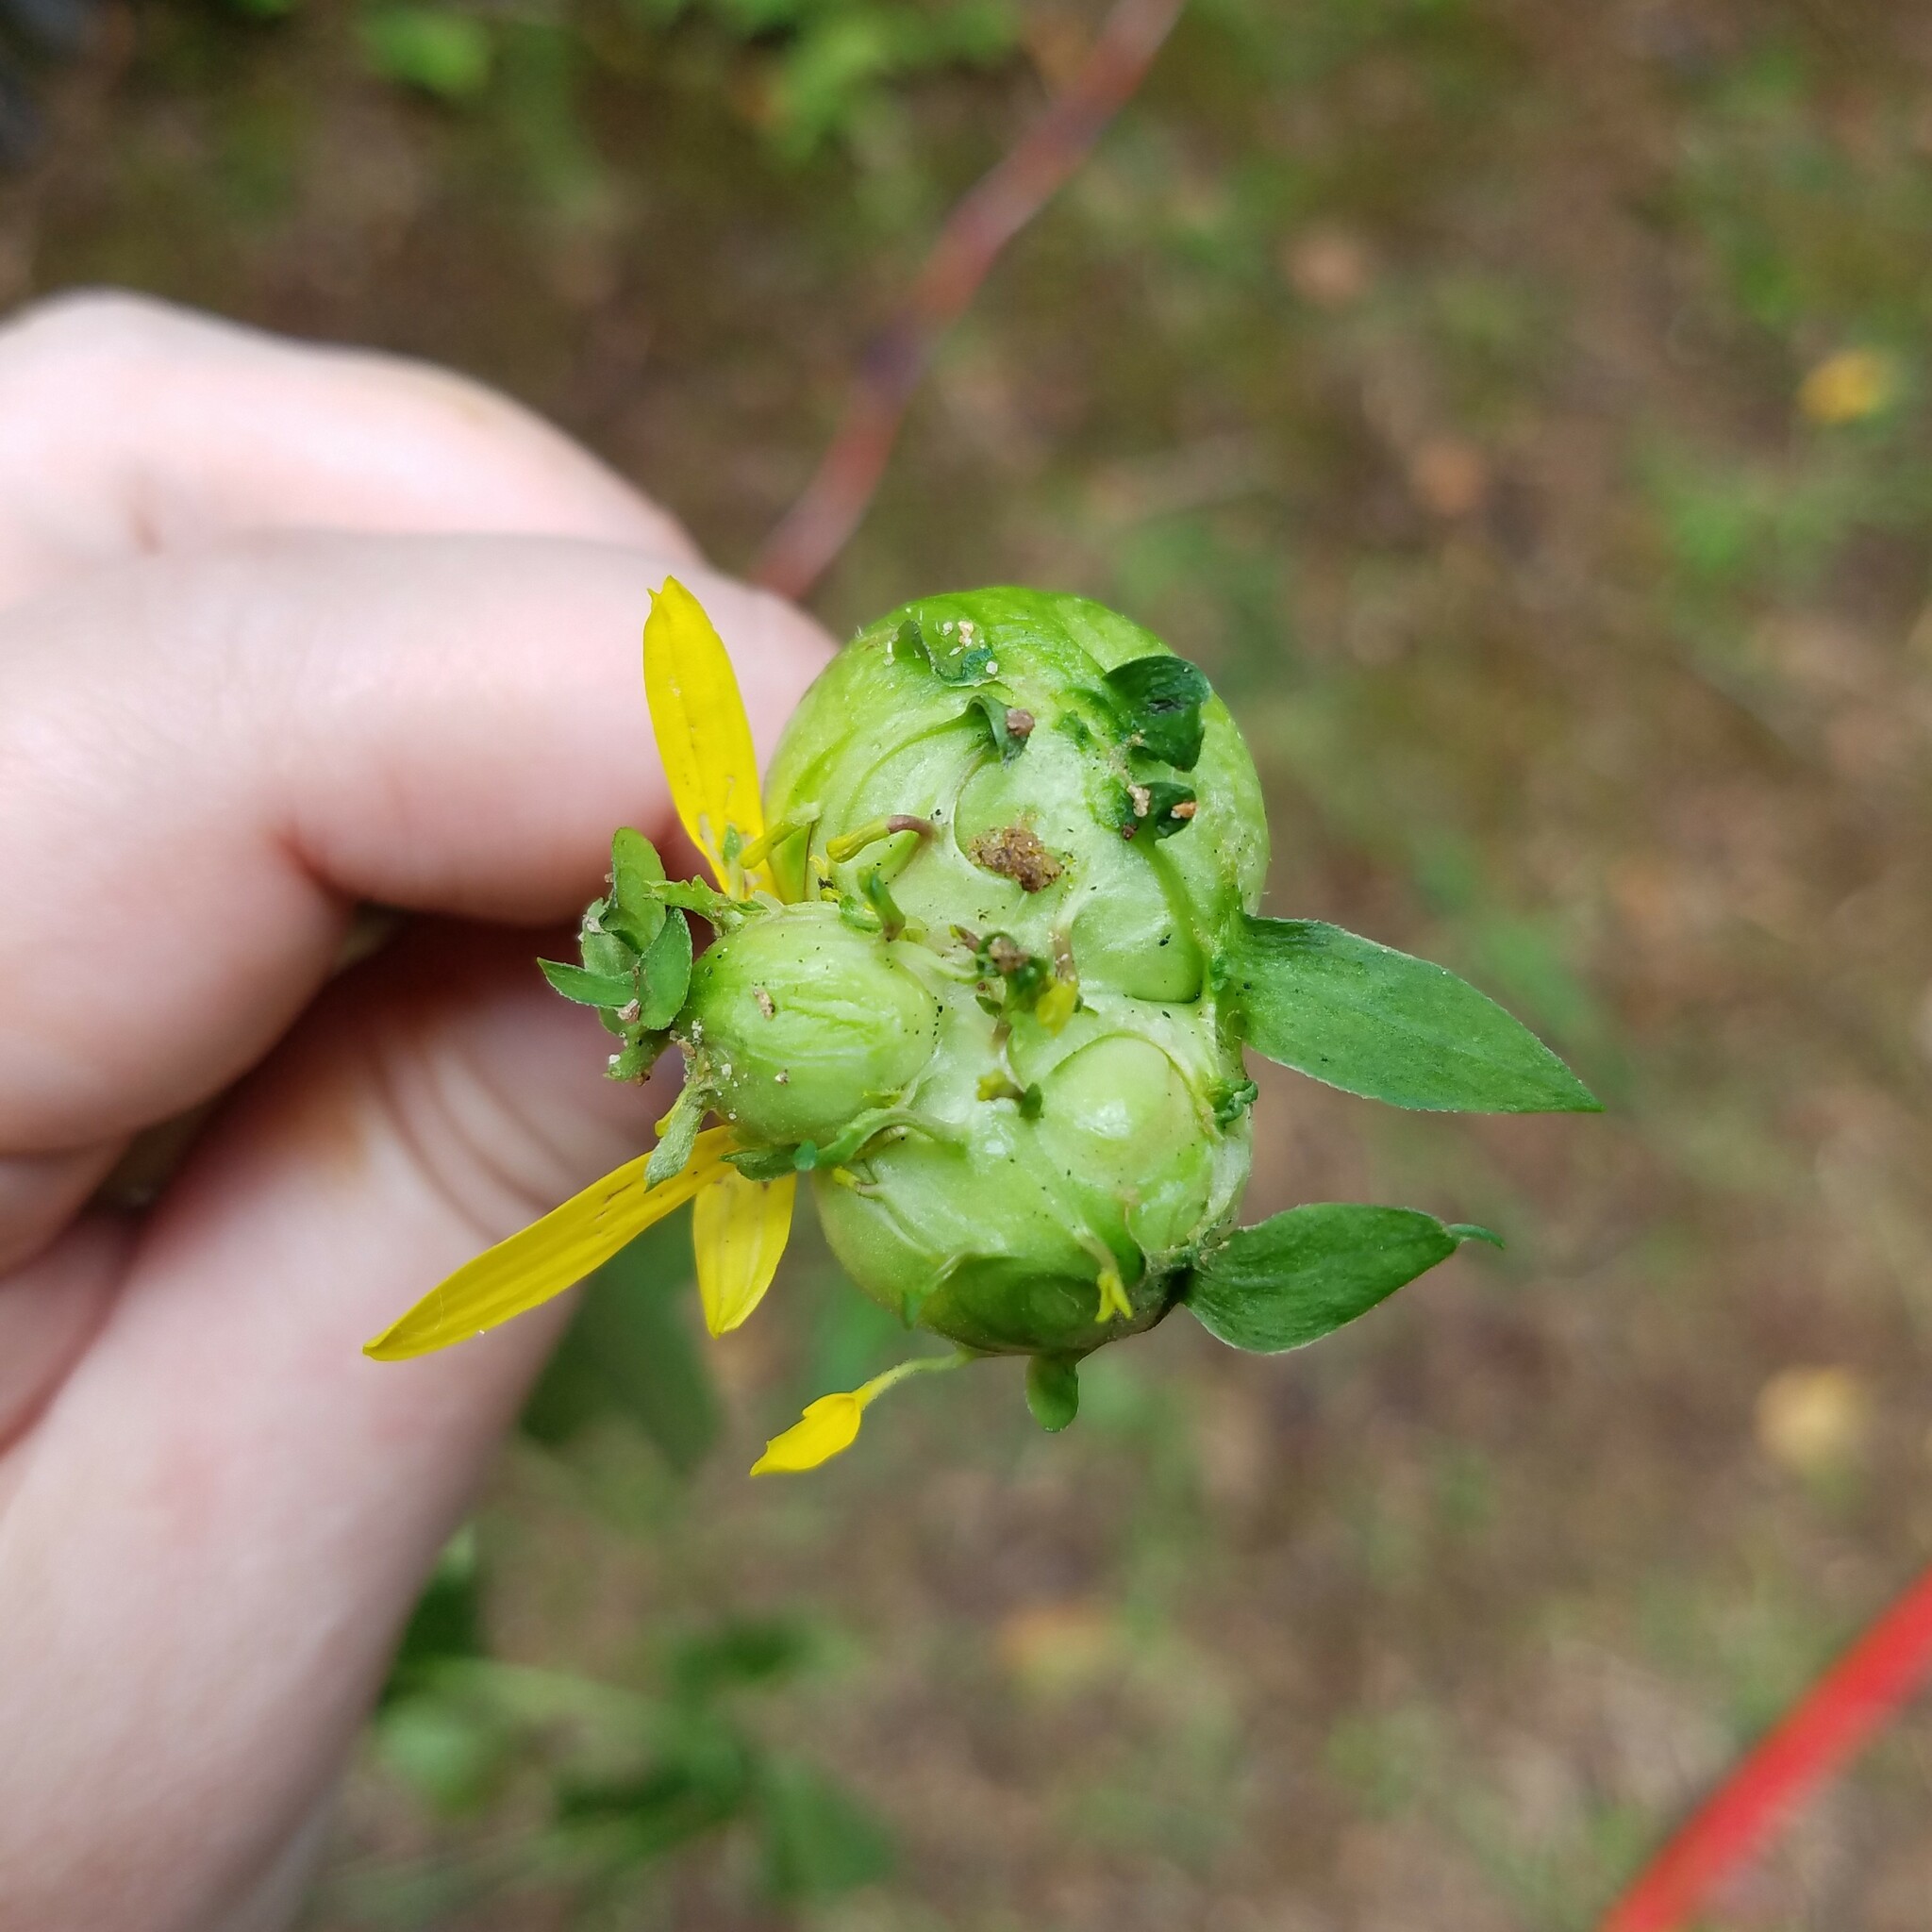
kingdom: Animalia
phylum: Arthropoda
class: Insecta
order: Diptera
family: Cecidomyiidae
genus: Asphondylia
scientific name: Asphondylia rudbeckiaeconspicua
